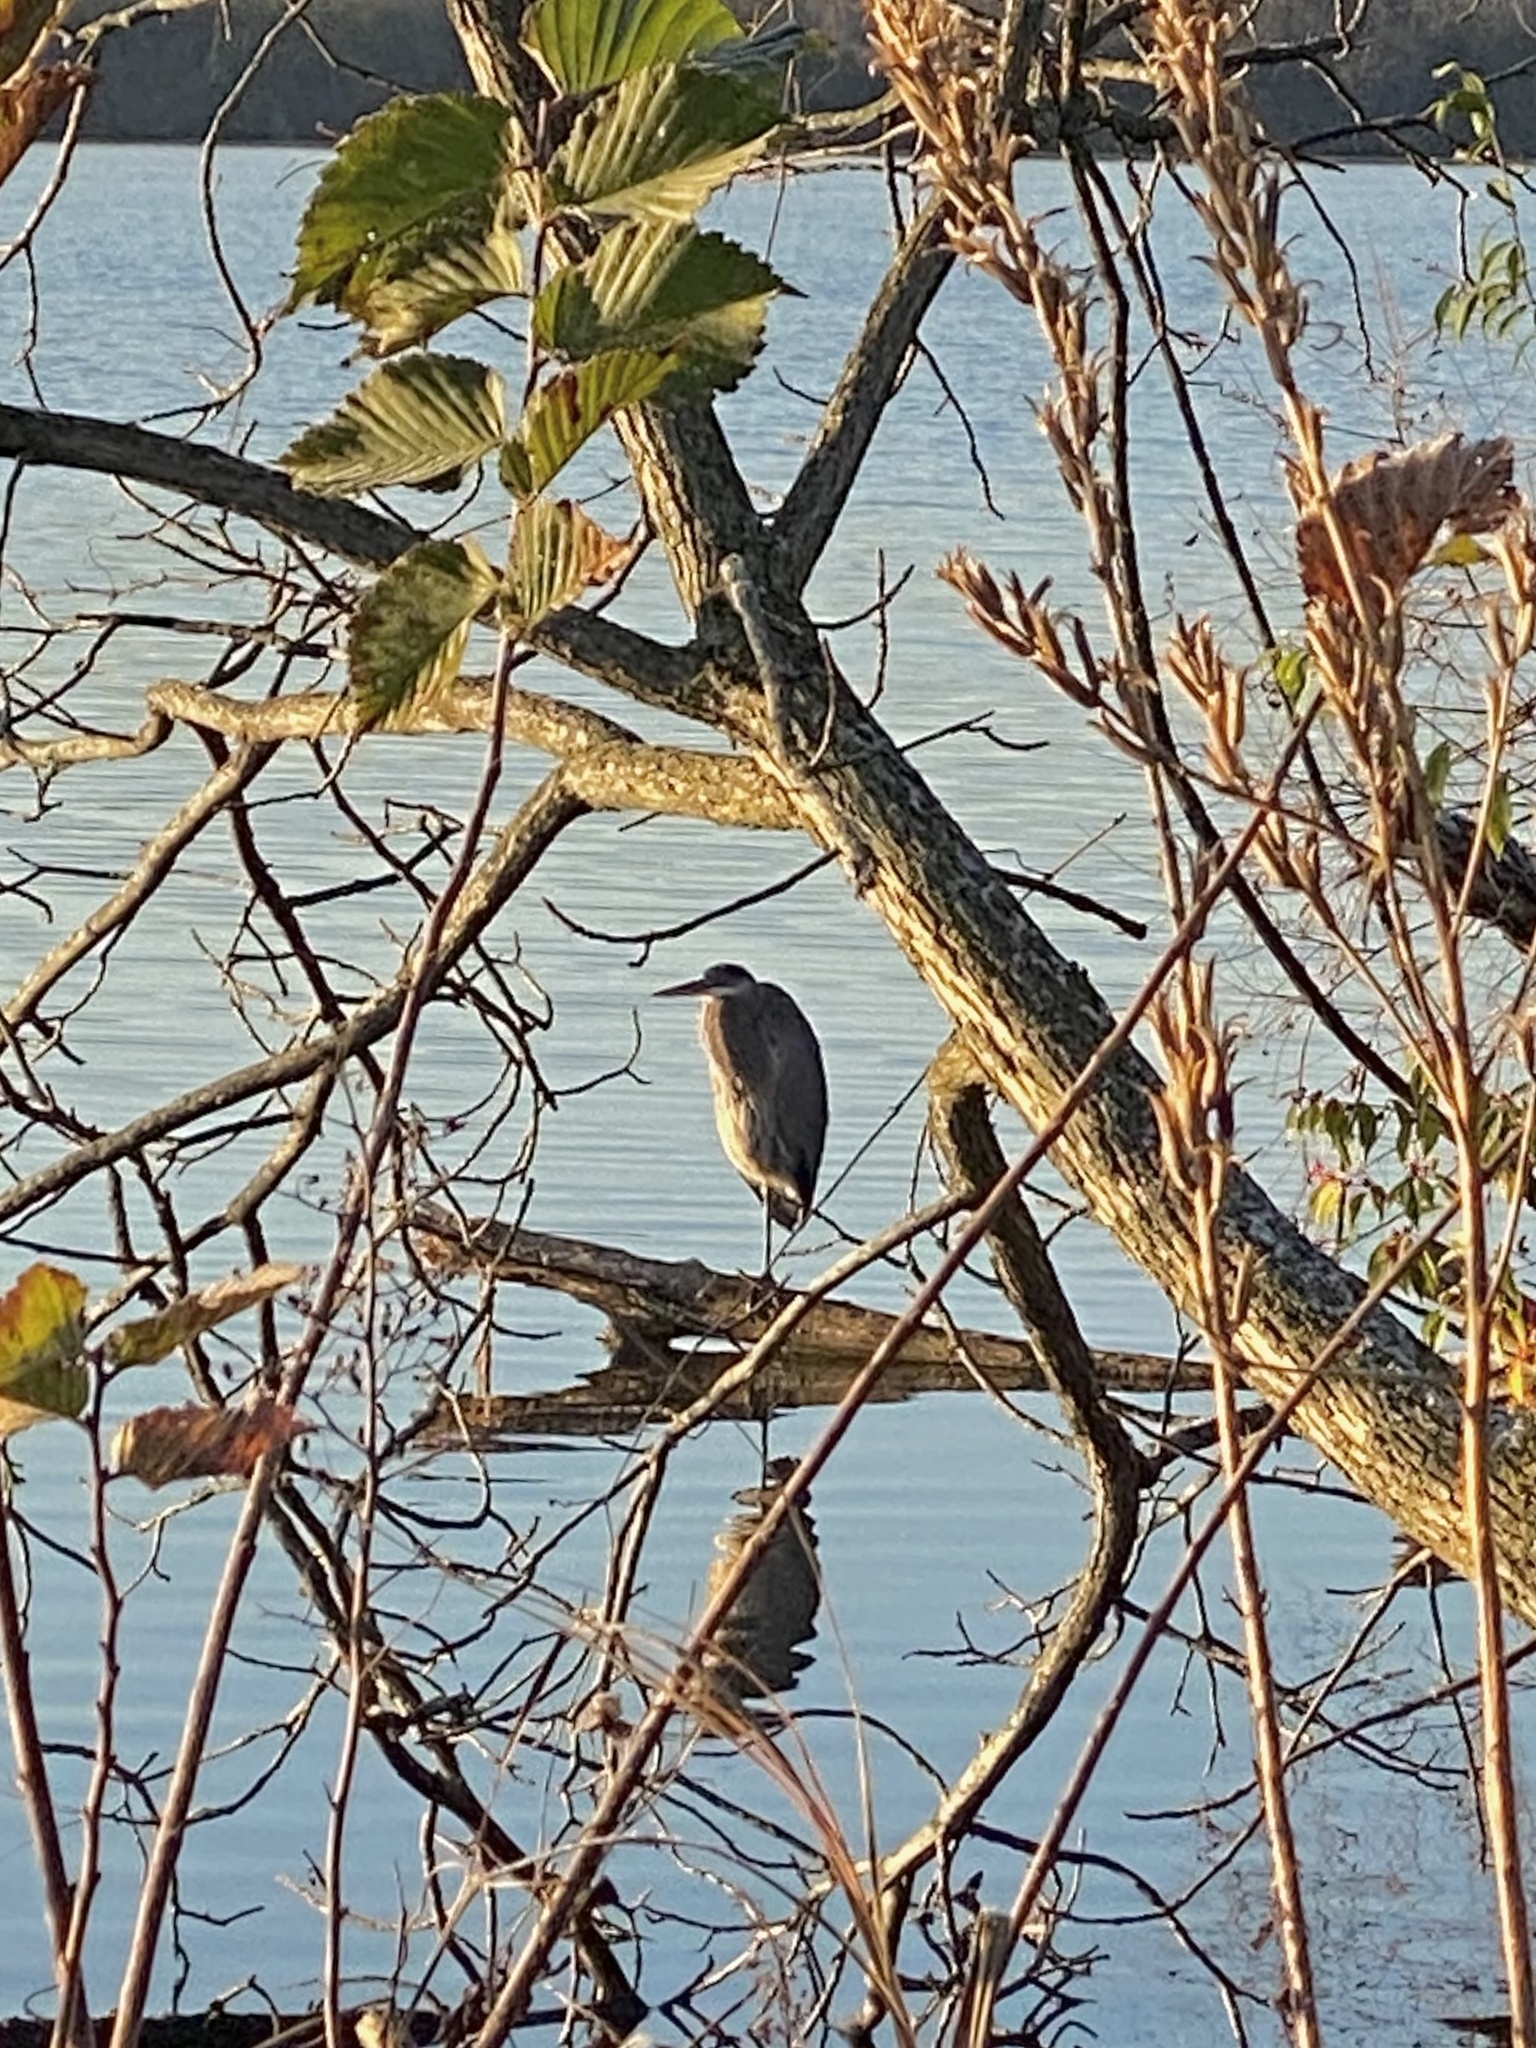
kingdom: Animalia
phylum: Chordata
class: Aves
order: Pelecaniformes
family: Ardeidae
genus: Ardea
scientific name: Ardea herodias
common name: Great blue heron
